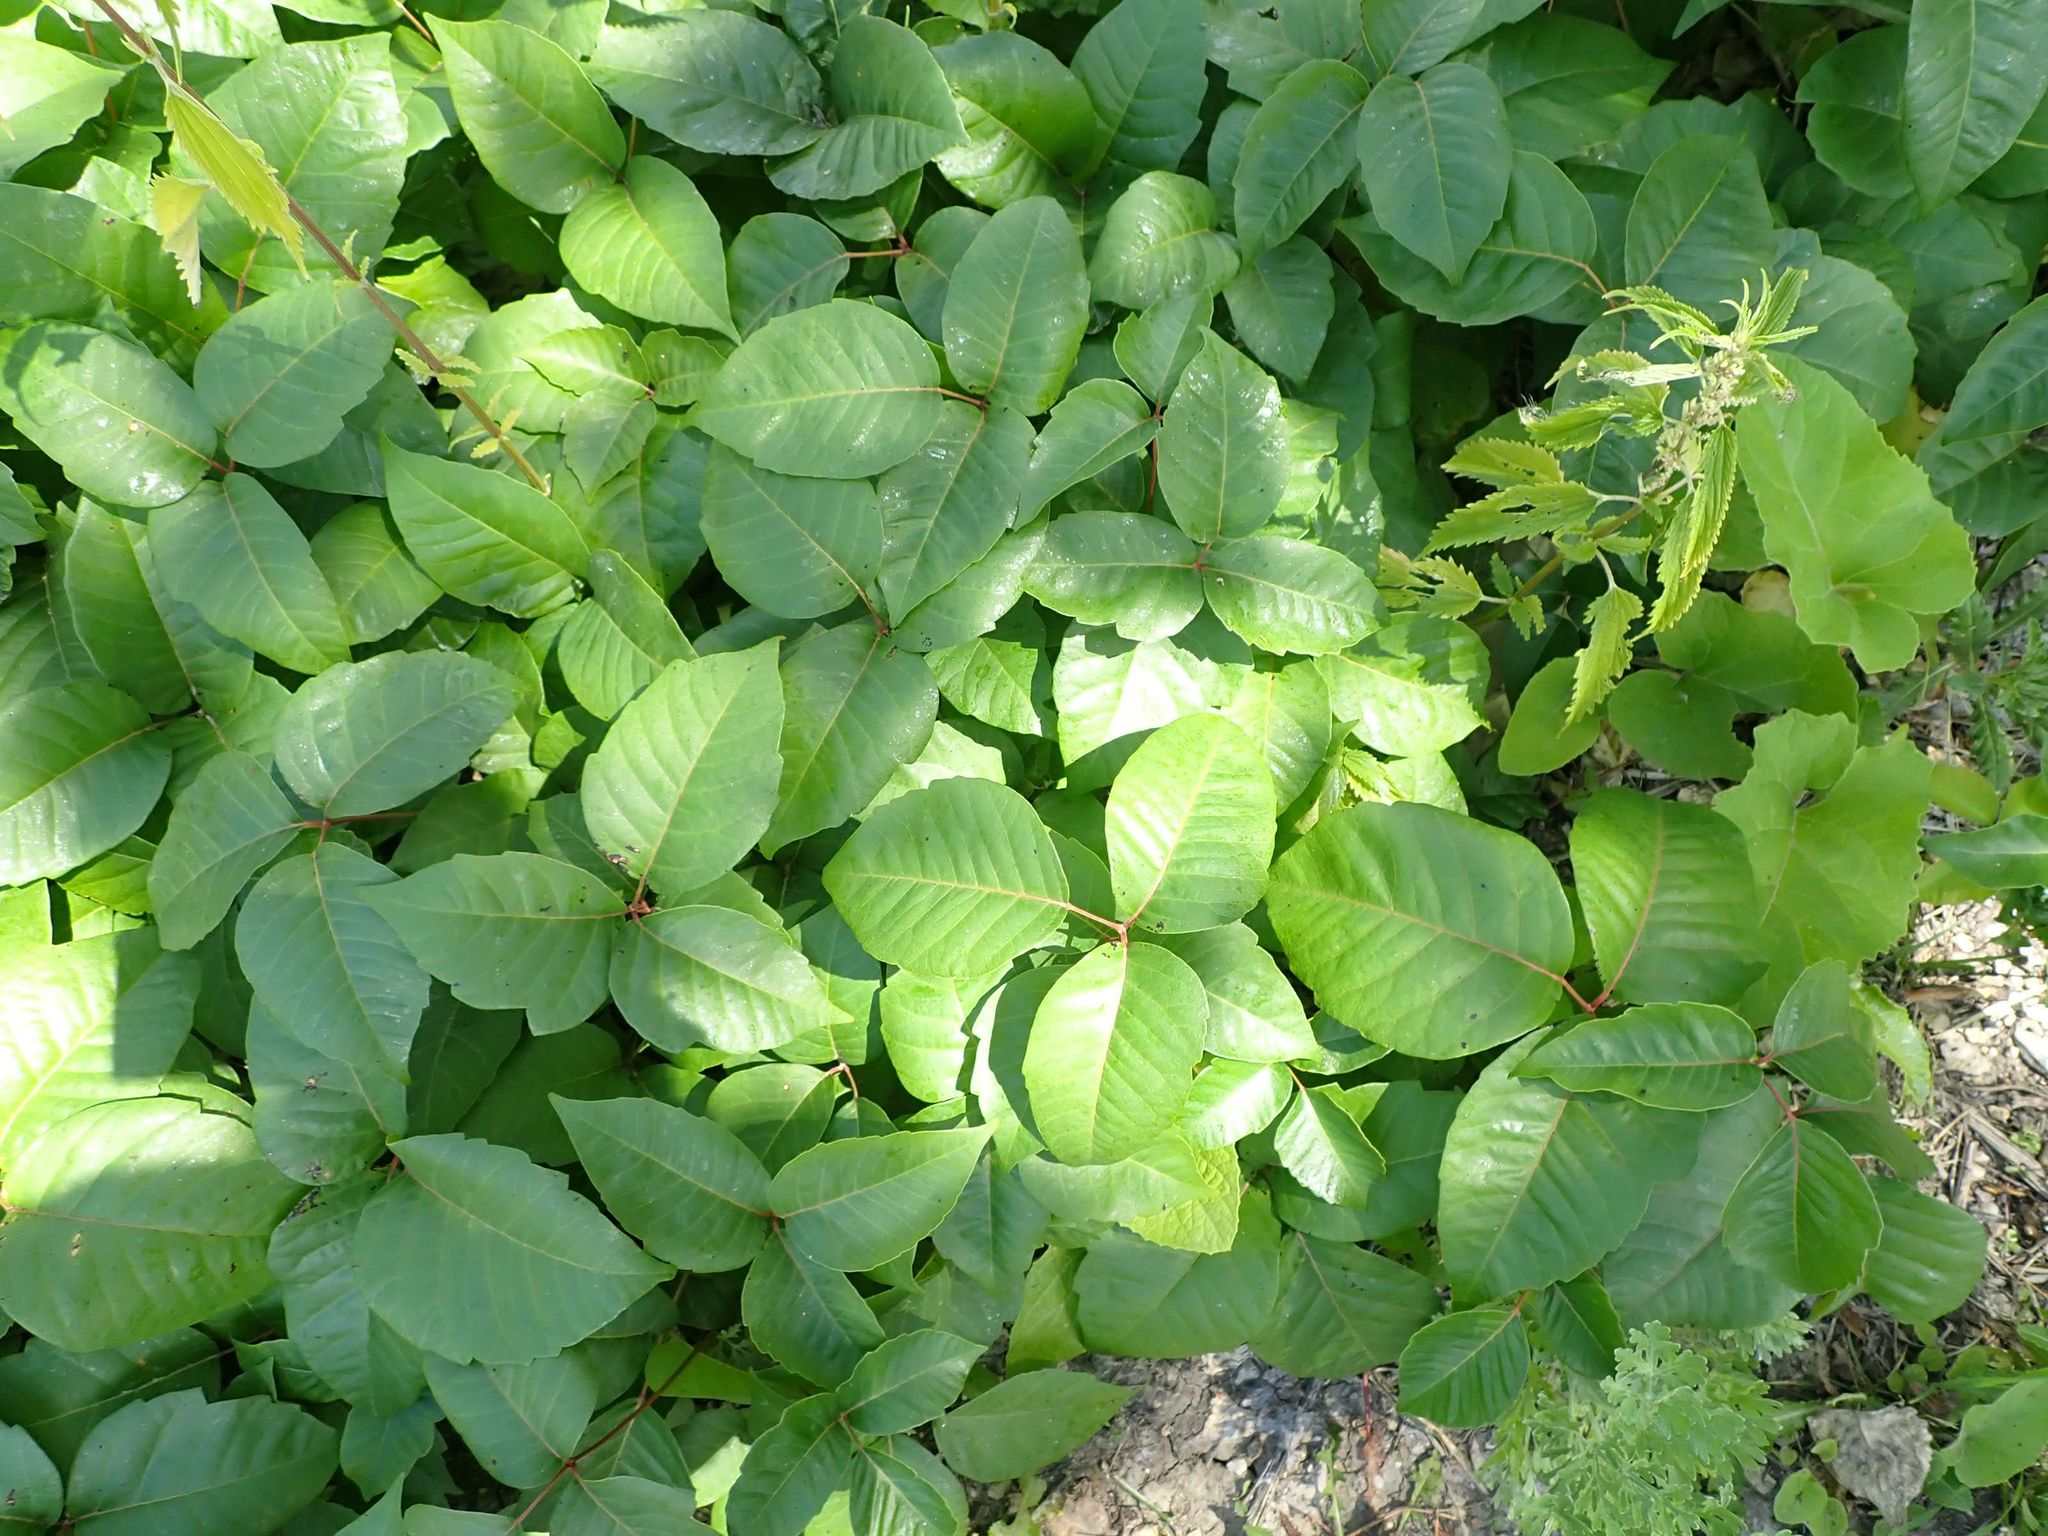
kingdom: Plantae
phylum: Tracheophyta
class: Magnoliopsida
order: Sapindales
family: Anacardiaceae
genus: Toxicodendron
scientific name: Toxicodendron rydbergii
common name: Rydberg's poison-ivy
